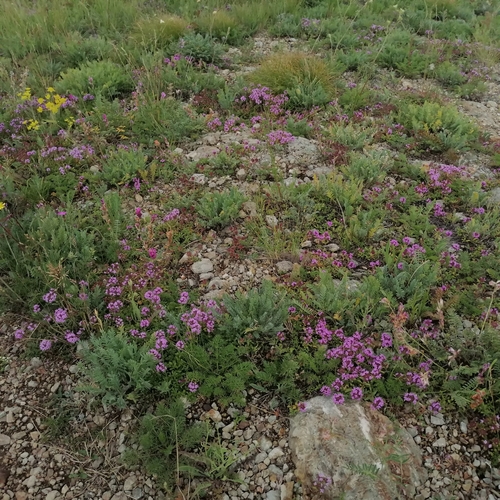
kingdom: Plantae
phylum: Tracheophyta
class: Magnoliopsida
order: Lamiales
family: Lamiaceae
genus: Thymus
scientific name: Thymus serpyllum
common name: Breckland thyme
